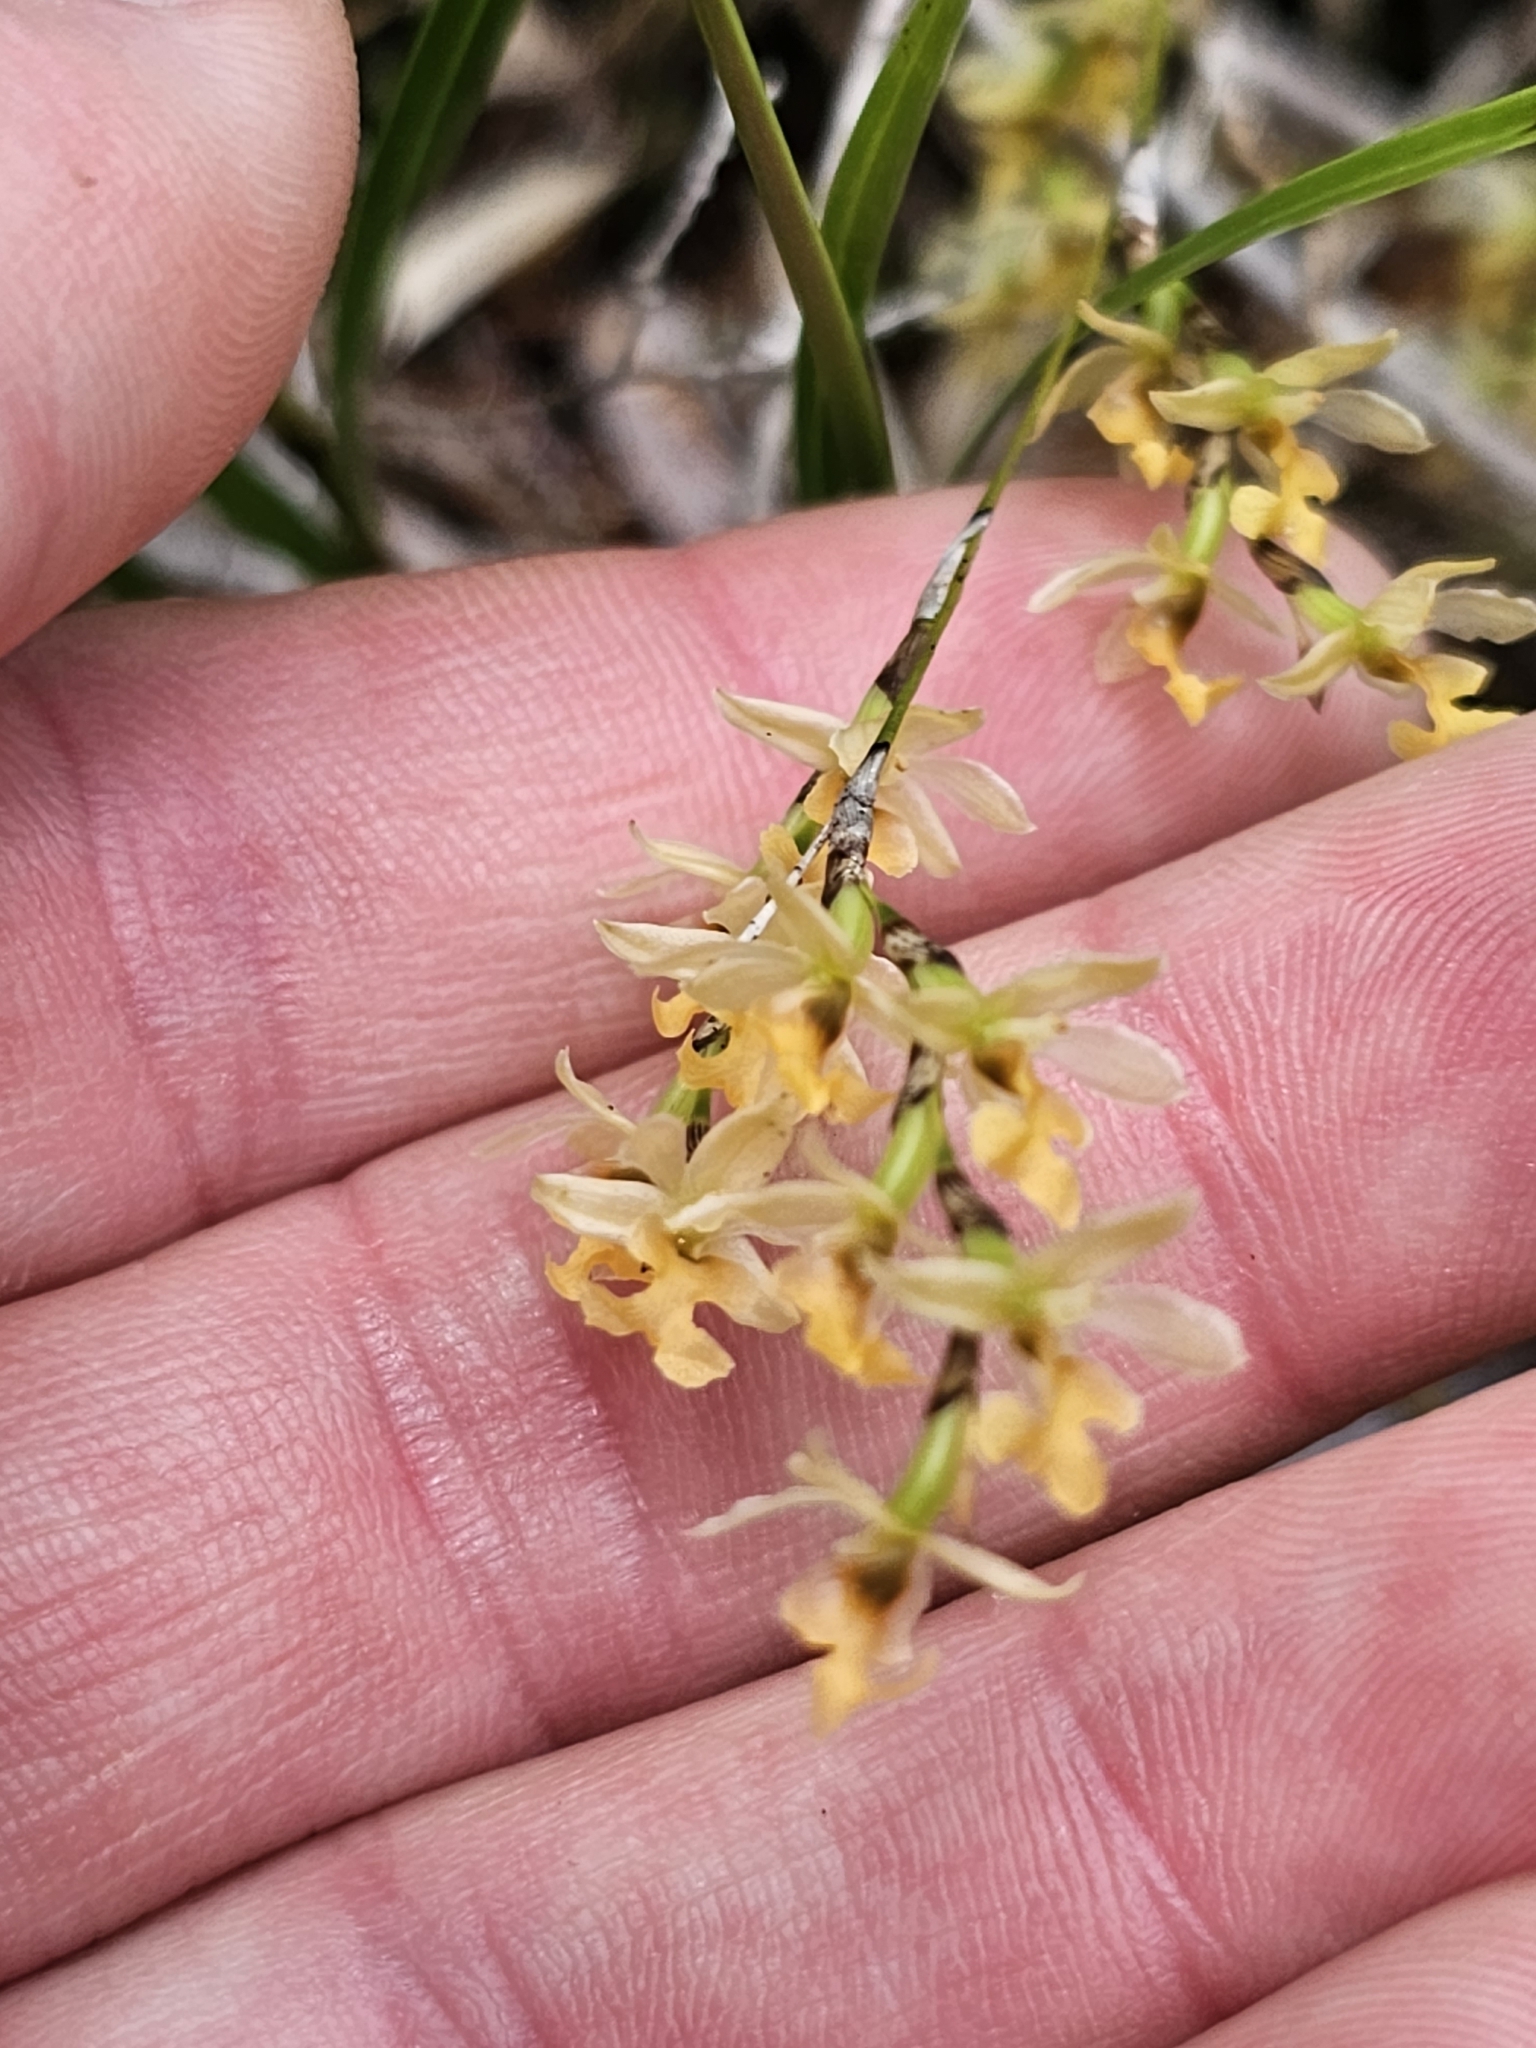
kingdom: Plantae
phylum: Tracheophyta
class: Liliopsida
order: Asparagales
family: Orchidaceae
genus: Earina
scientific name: Earina mucronata
